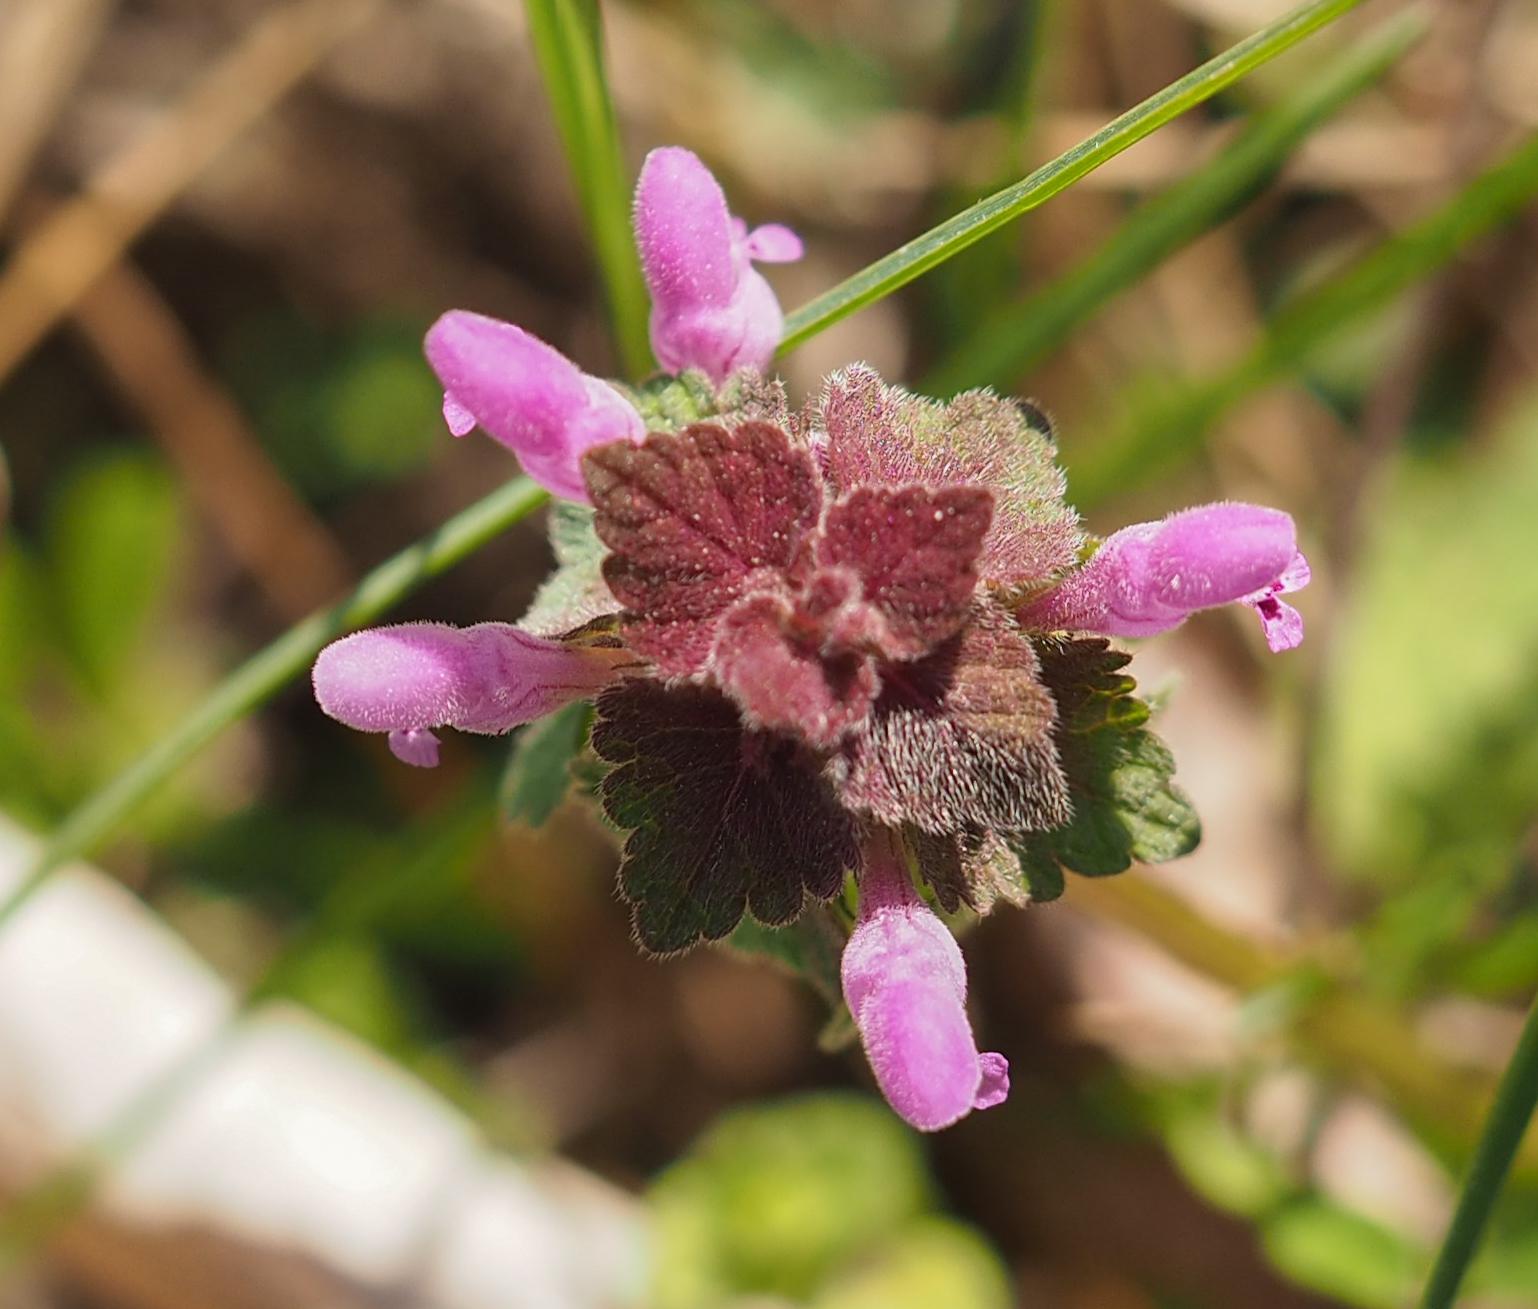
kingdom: Plantae
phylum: Tracheophyta
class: Magnoliopsida
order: Lamiales
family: Lamiaceae
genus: Lamium
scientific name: Lamium purpureum
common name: Red dead-nettle
